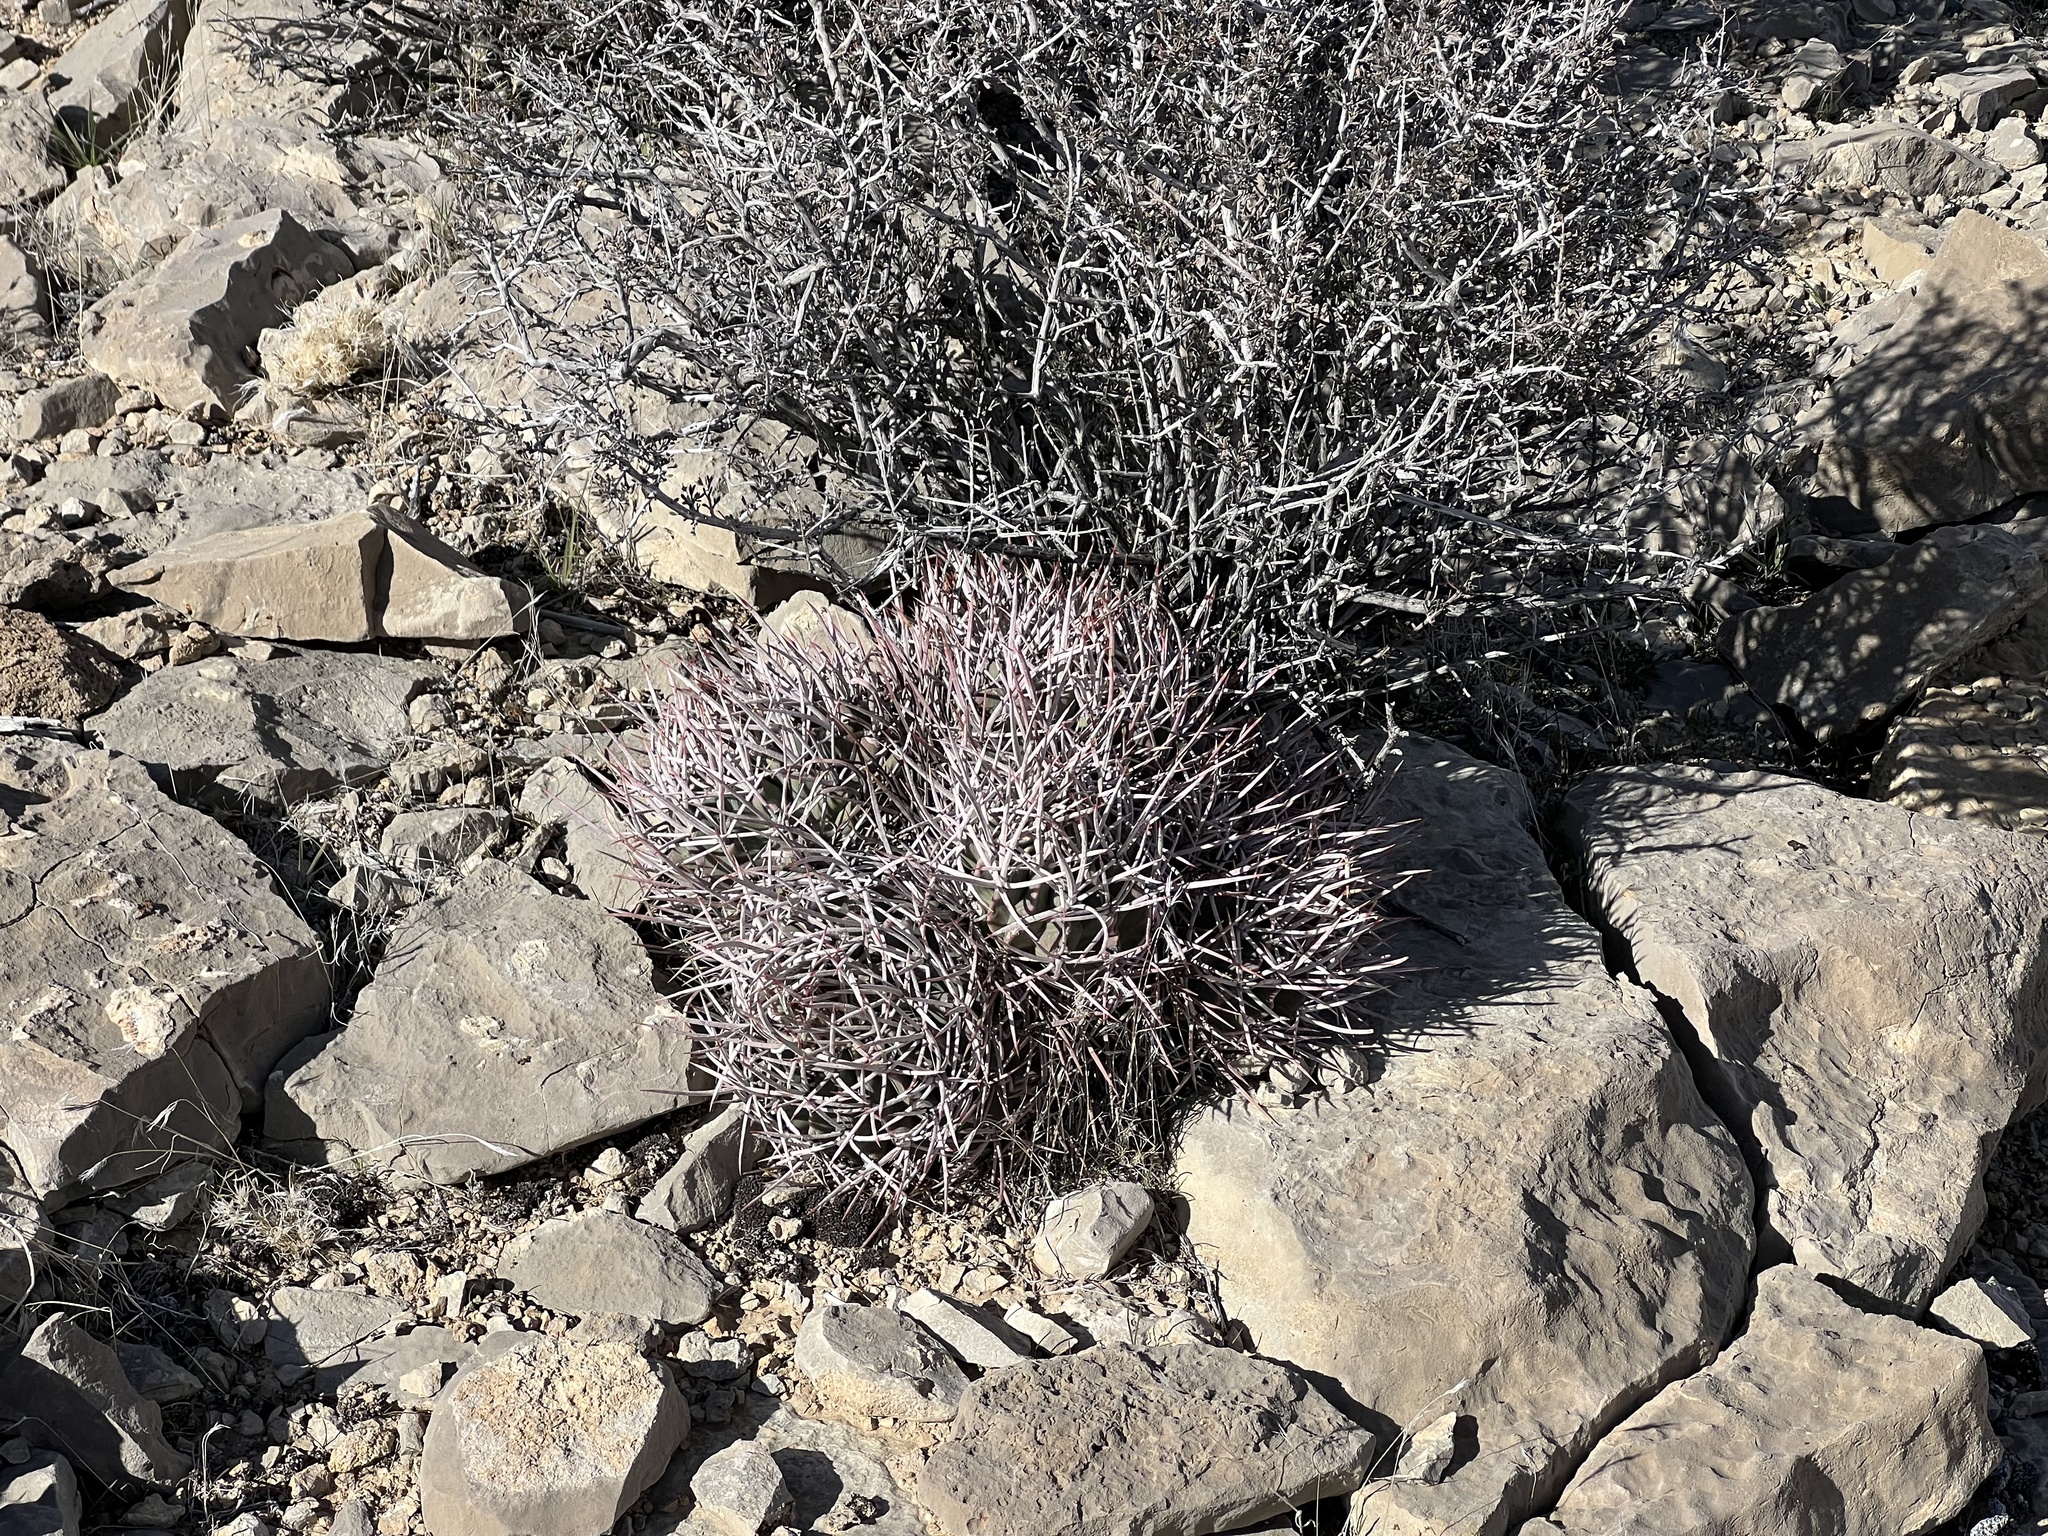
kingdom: Plantae
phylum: Tracheophyta
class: Magnoliopsida
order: Caryophyllales
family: Cactaceae
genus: Echinocactus
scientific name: Echinocactus polycephalus
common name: Cottontop cactus
